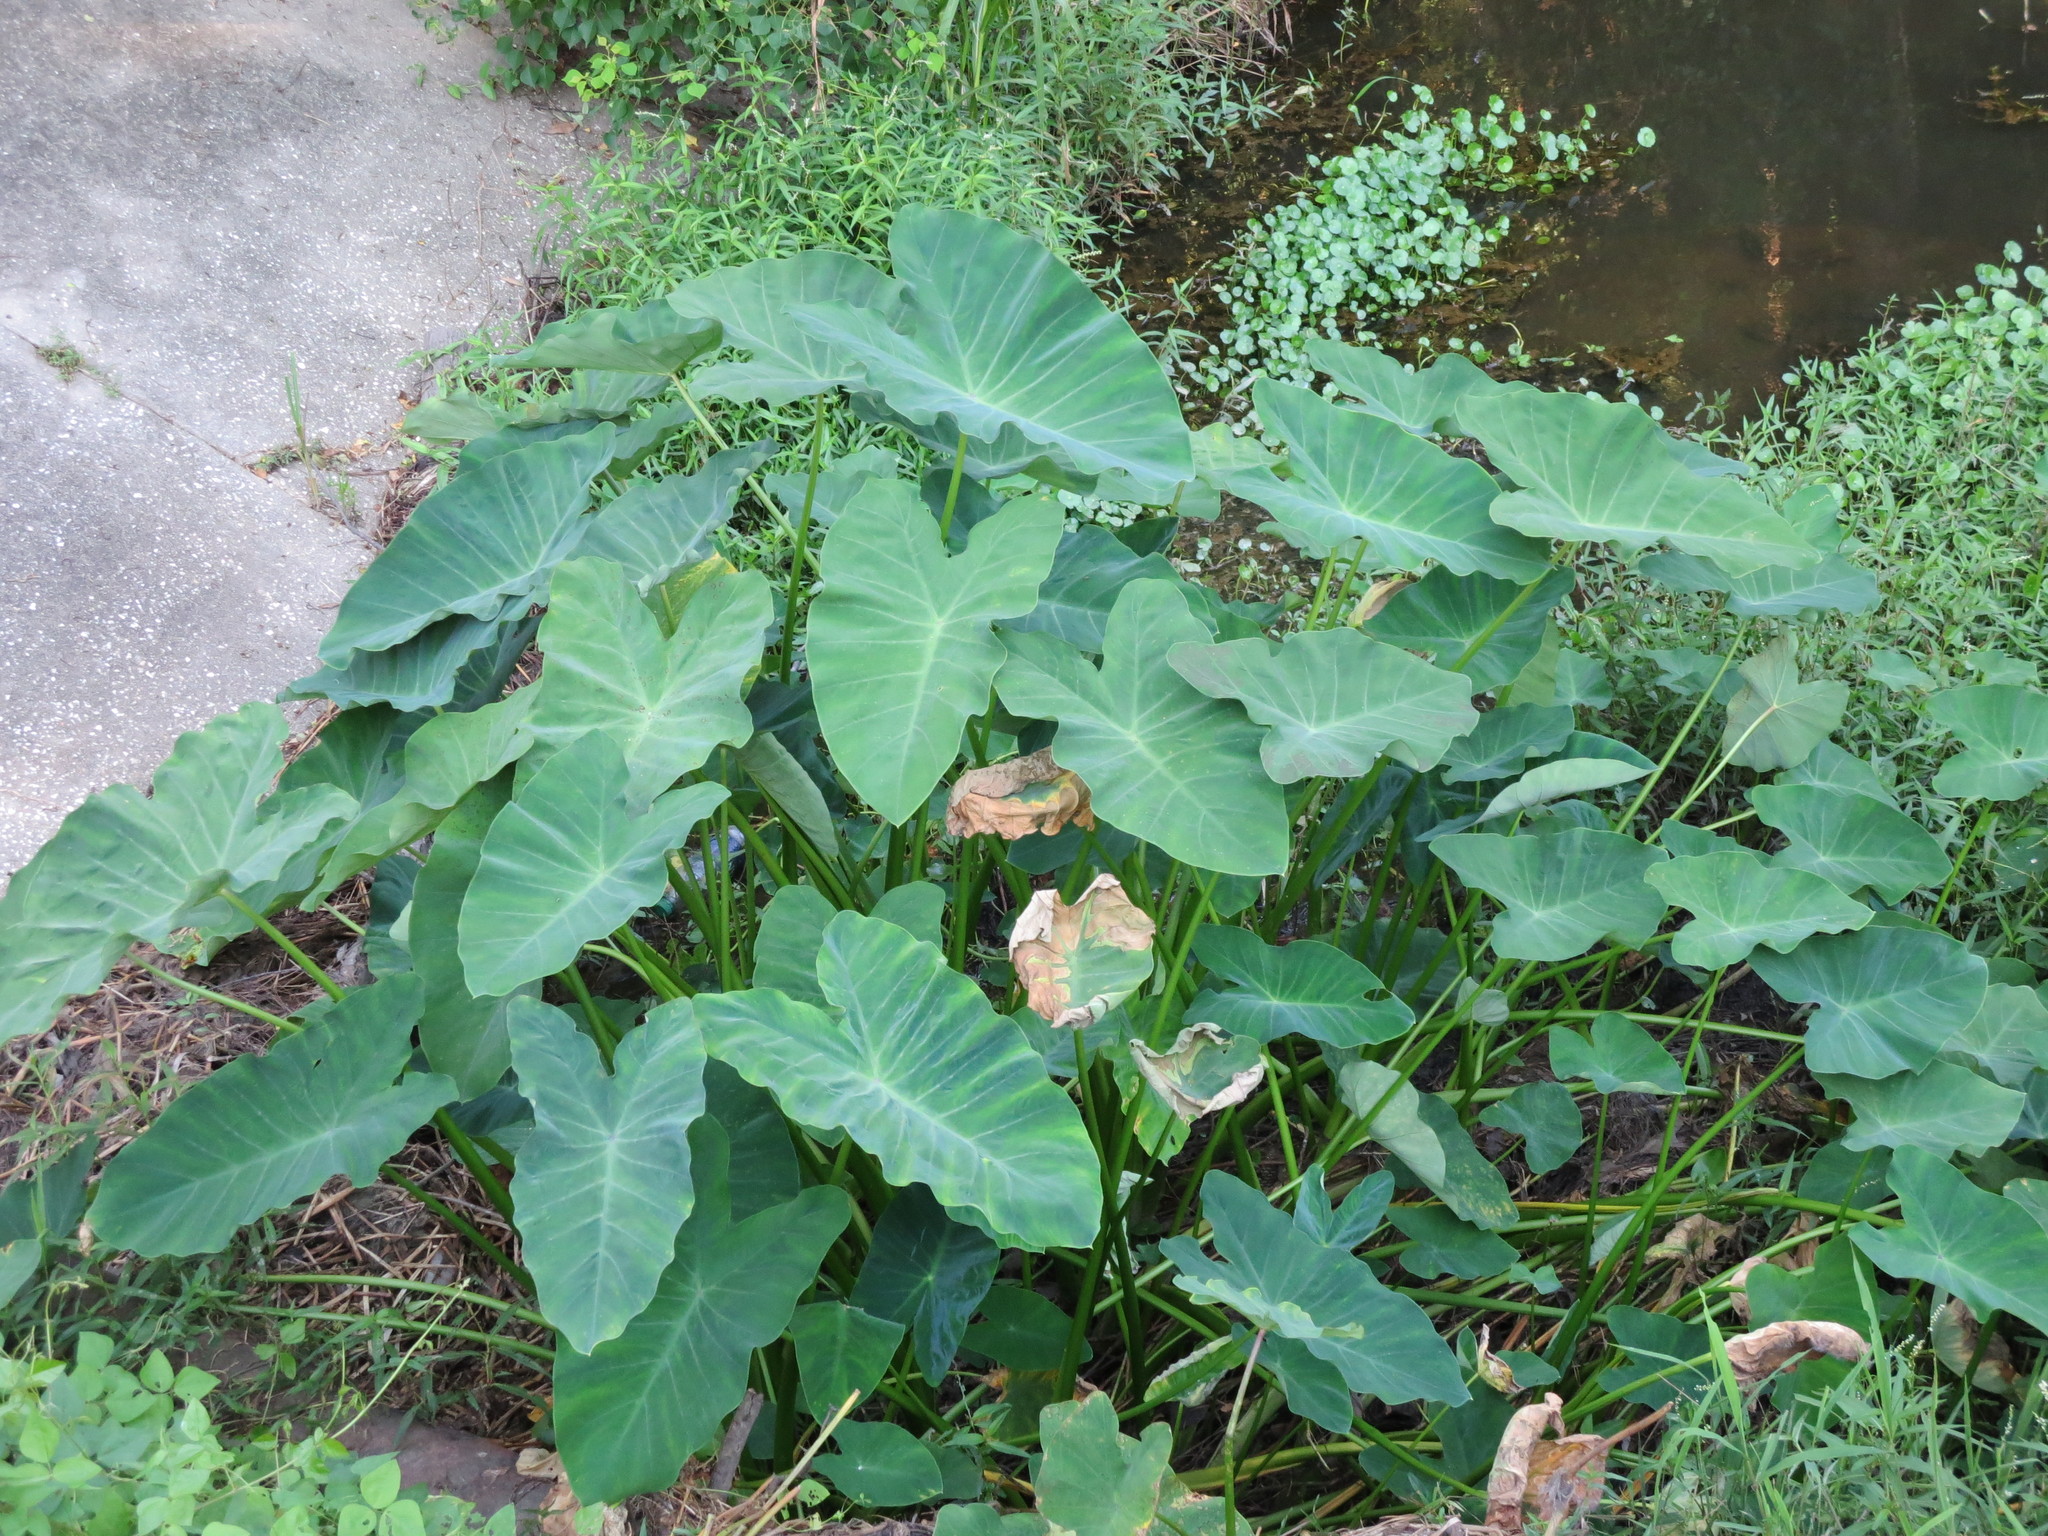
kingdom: Plantae
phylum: Tracheophyta
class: Liliopsida
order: Alismatales
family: Araceae
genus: Colocasia
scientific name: Colocasia esculenta
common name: Taro
